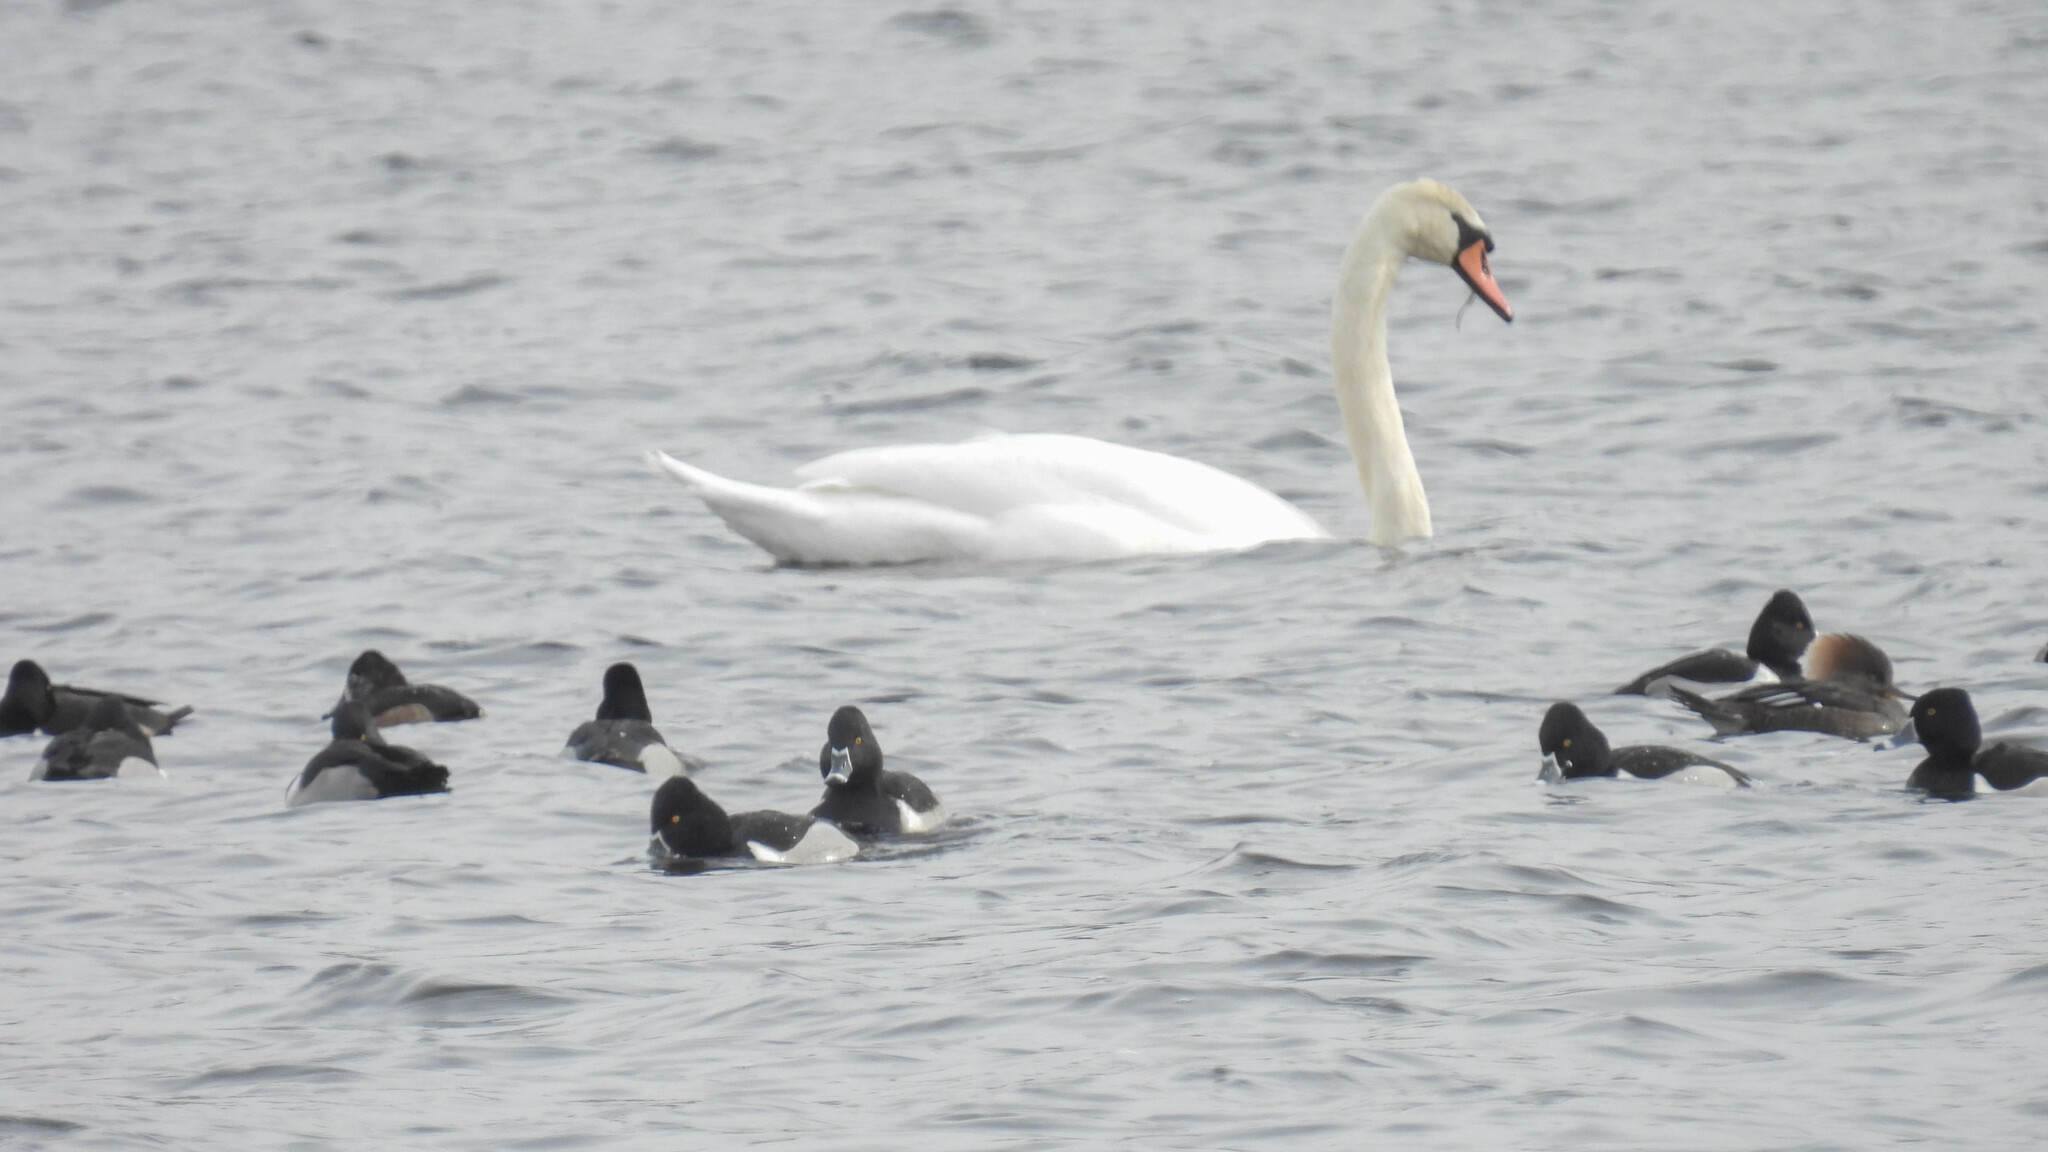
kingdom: Animalia
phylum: Chordata
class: Aves
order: Anseriformes
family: Anatidae
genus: Aythya
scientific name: Aythya collaris
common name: Ring-necked duck
